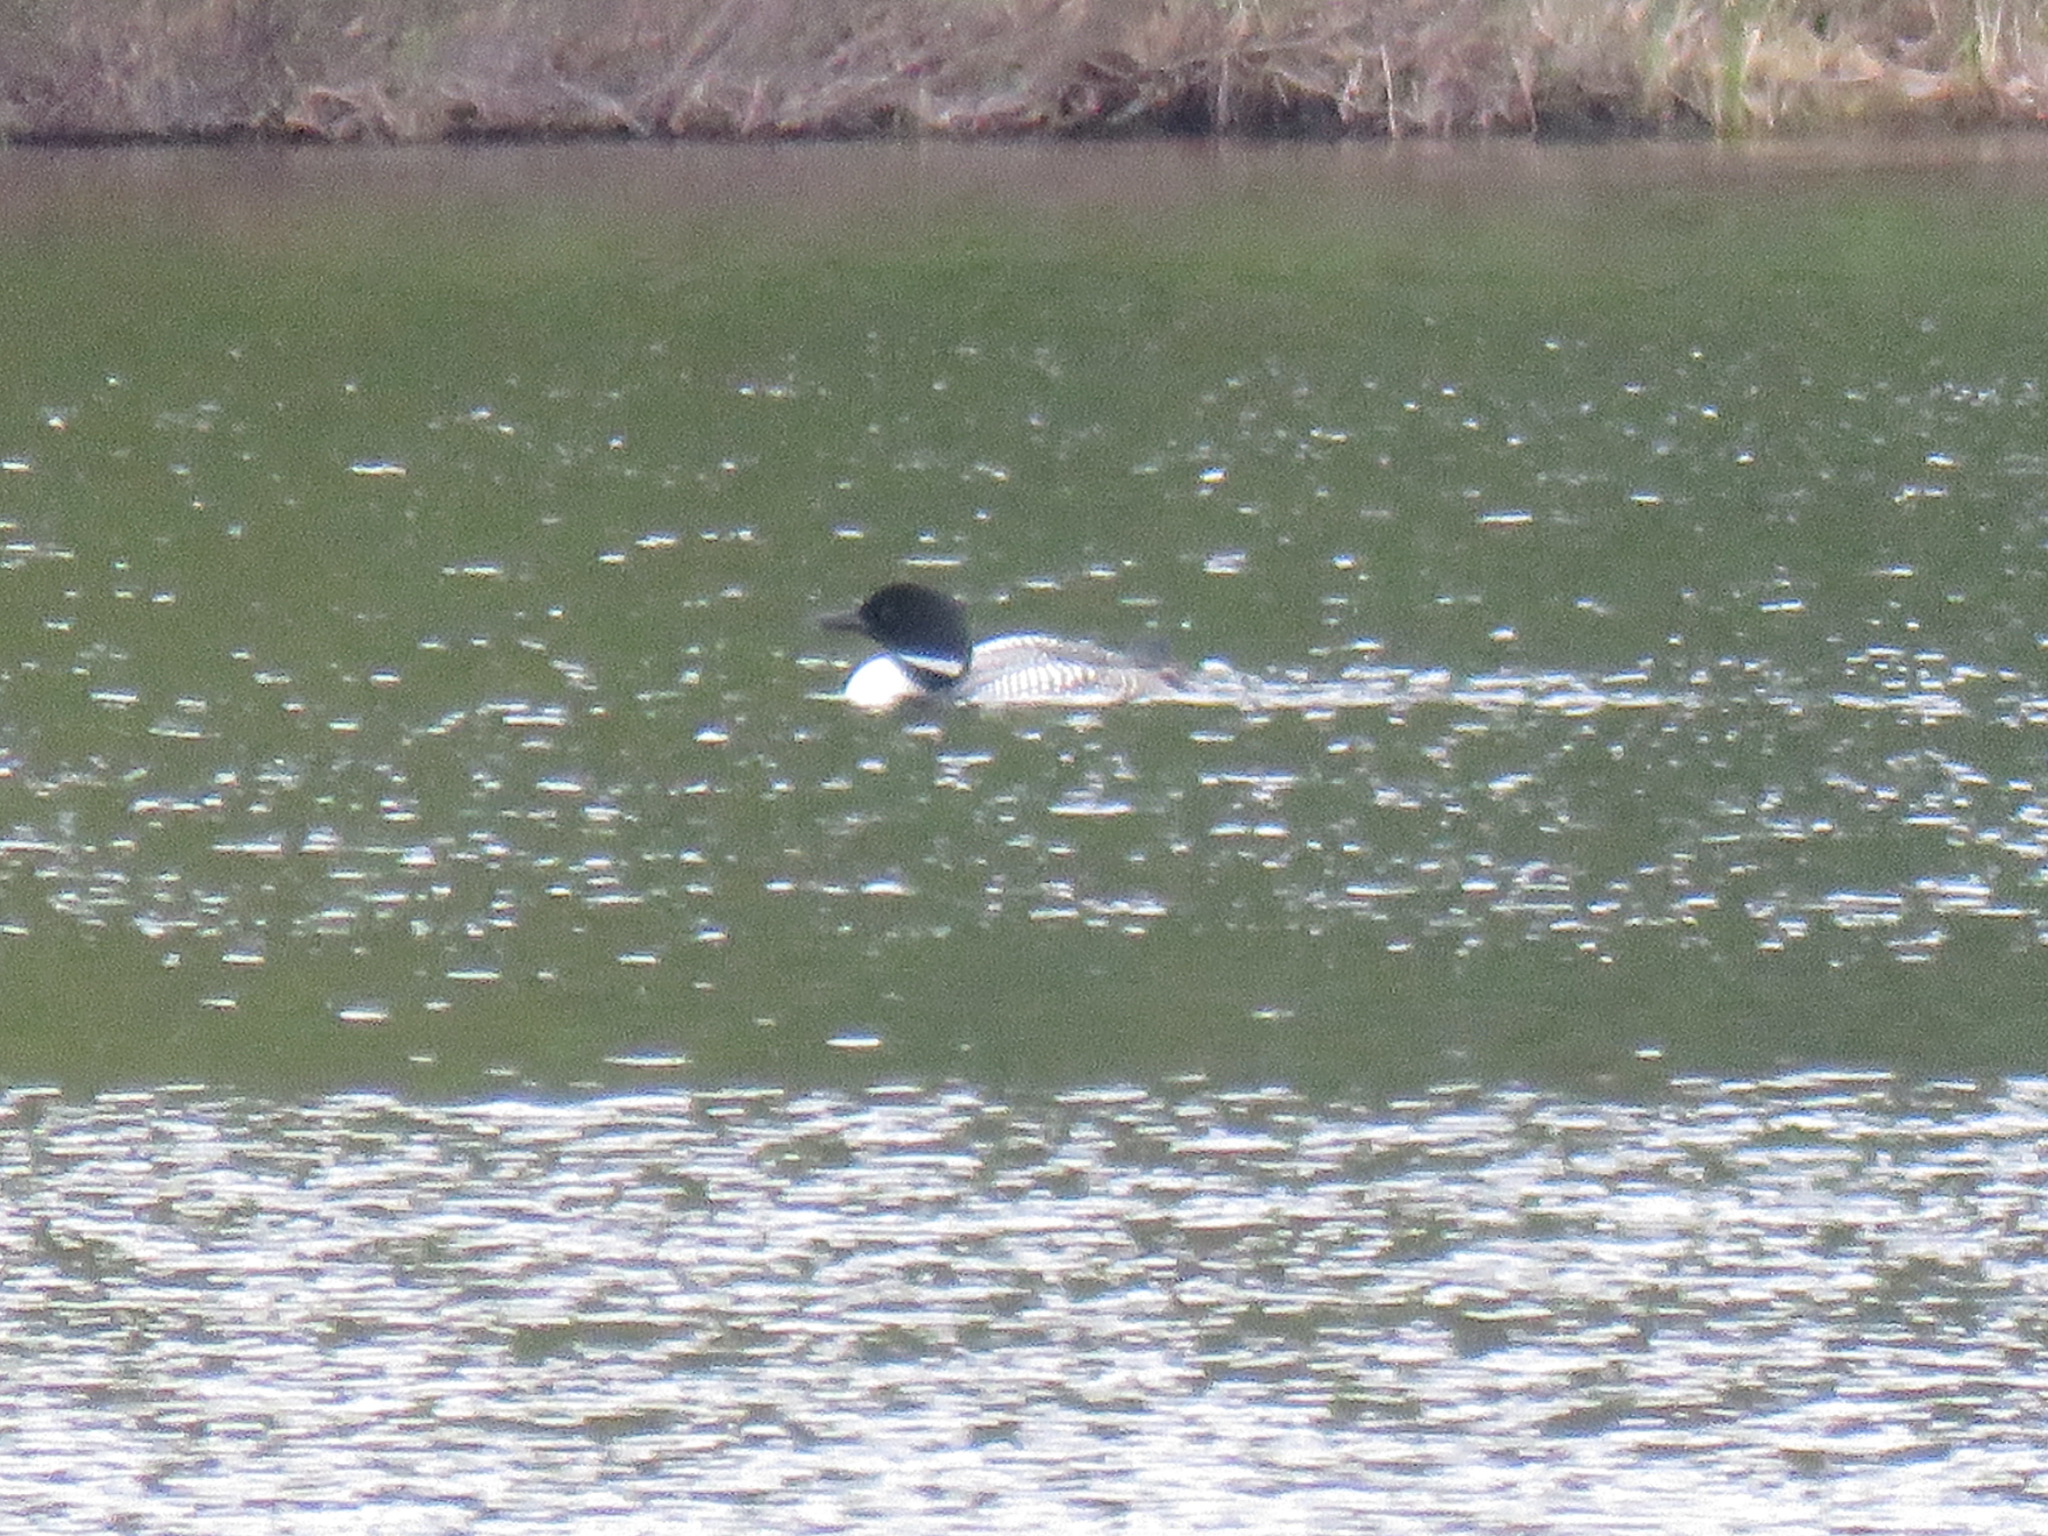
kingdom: Animalia
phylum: Chordata
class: Aves
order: Gaviiformes
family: Gaviidae
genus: Gavia
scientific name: Gavia immer
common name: Common loon
